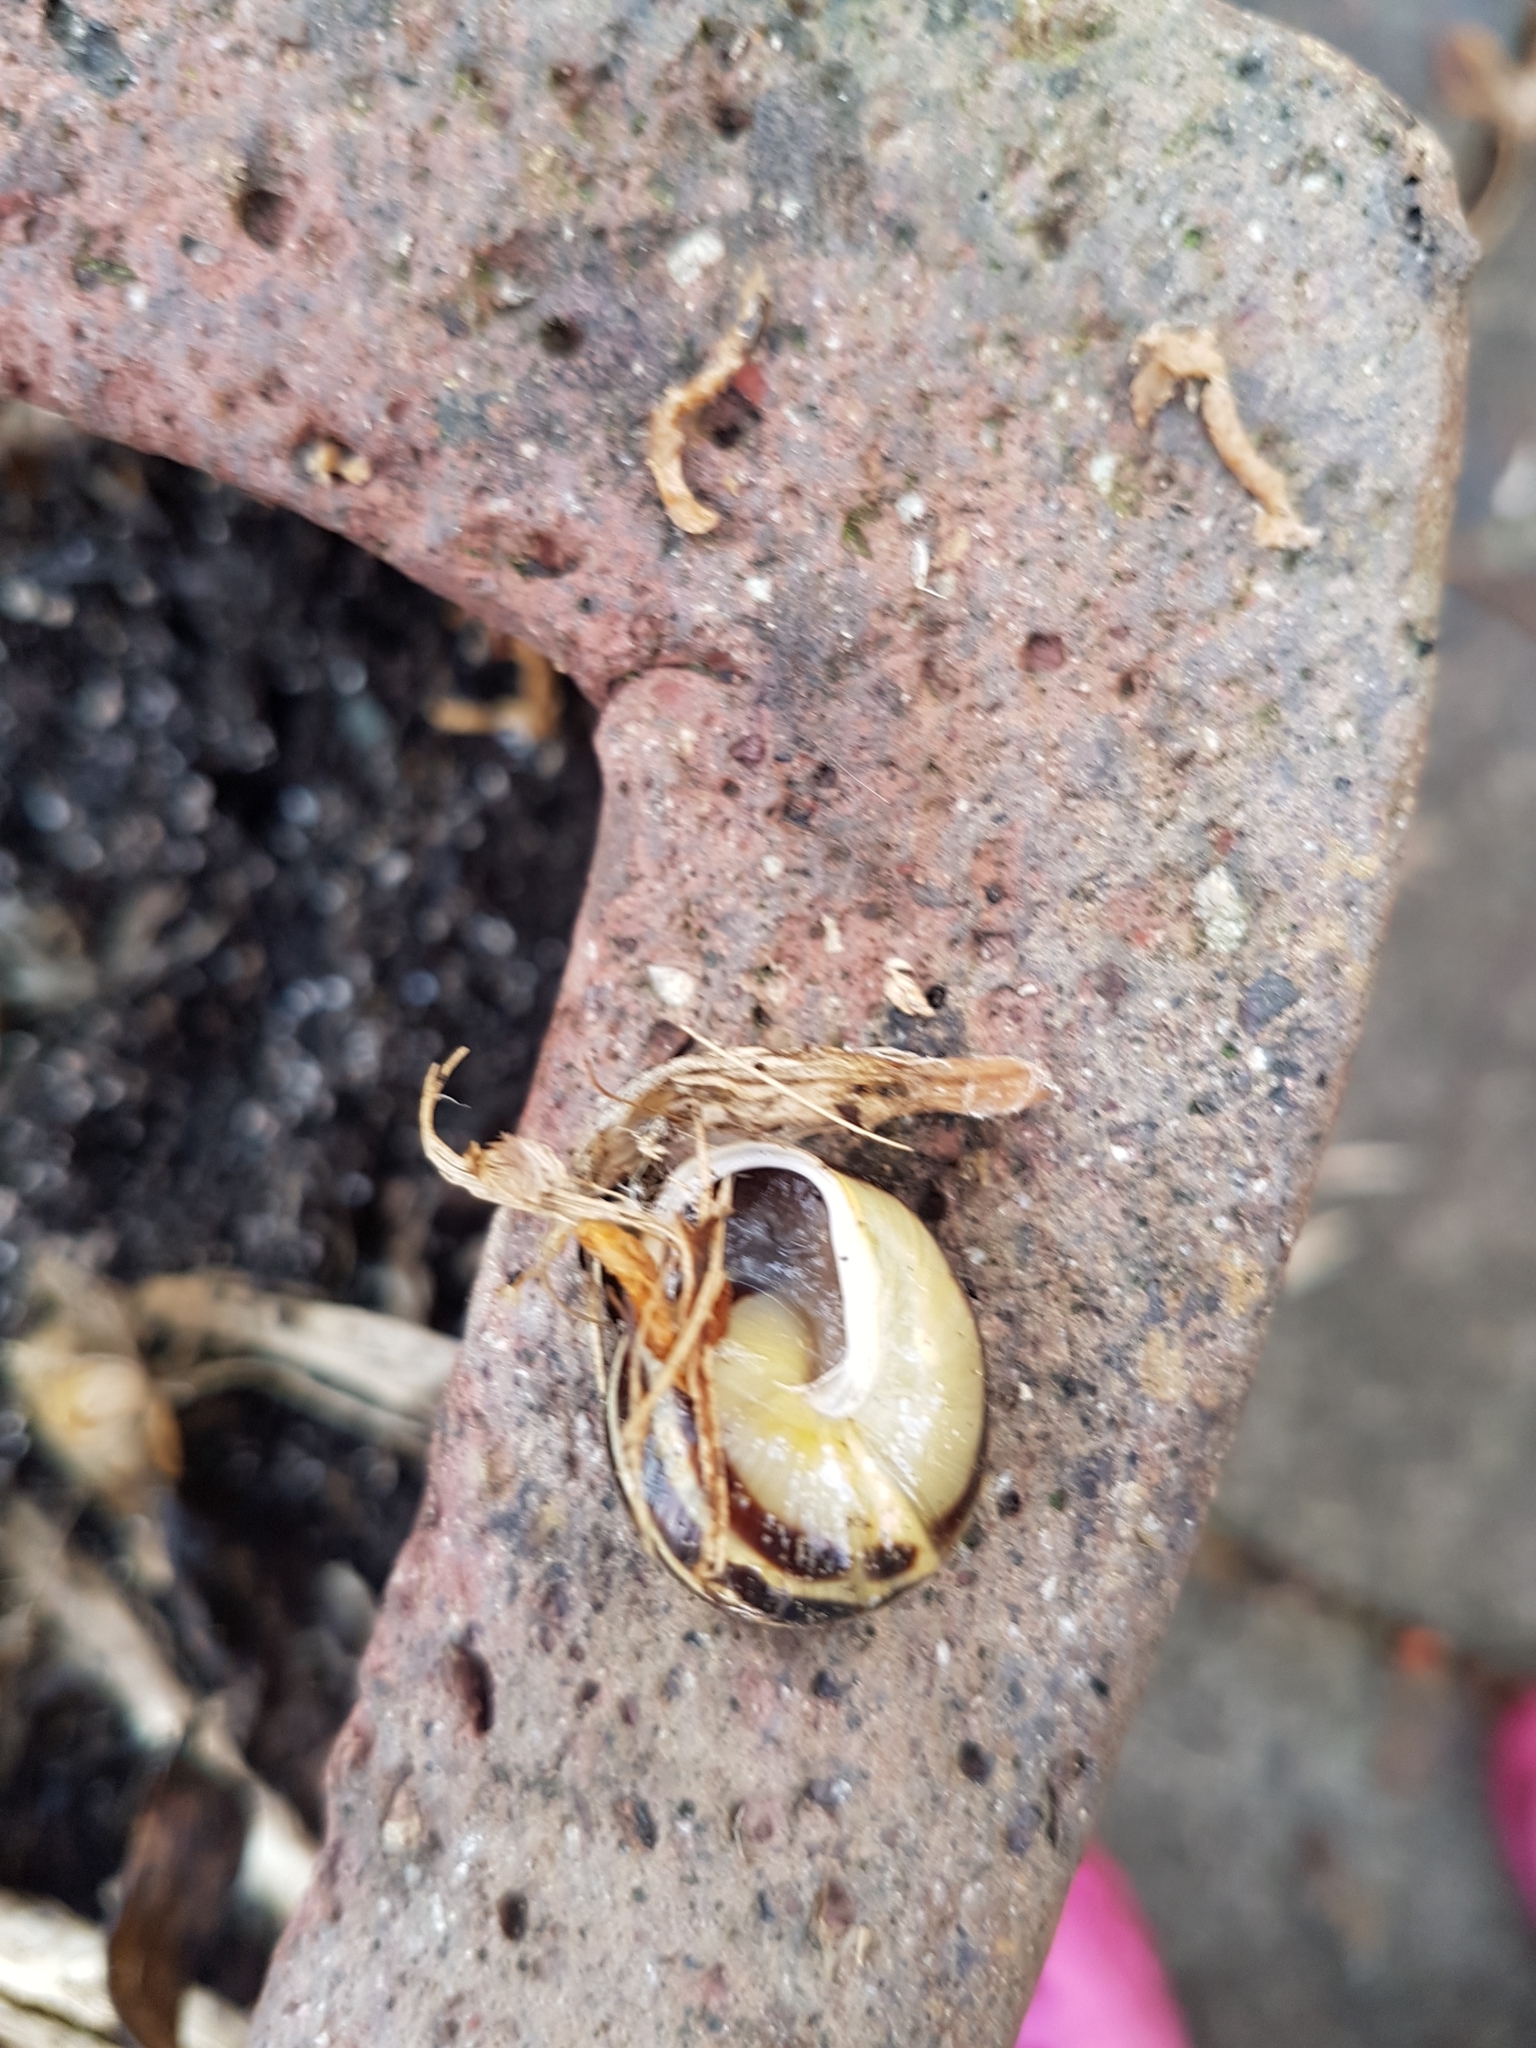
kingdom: Animalia
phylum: Mollusca
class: Gastropoda
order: Stylommatophora
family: Helicidae
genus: Cepaea
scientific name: Cepaea hortensis
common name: White-lip gardensnail
